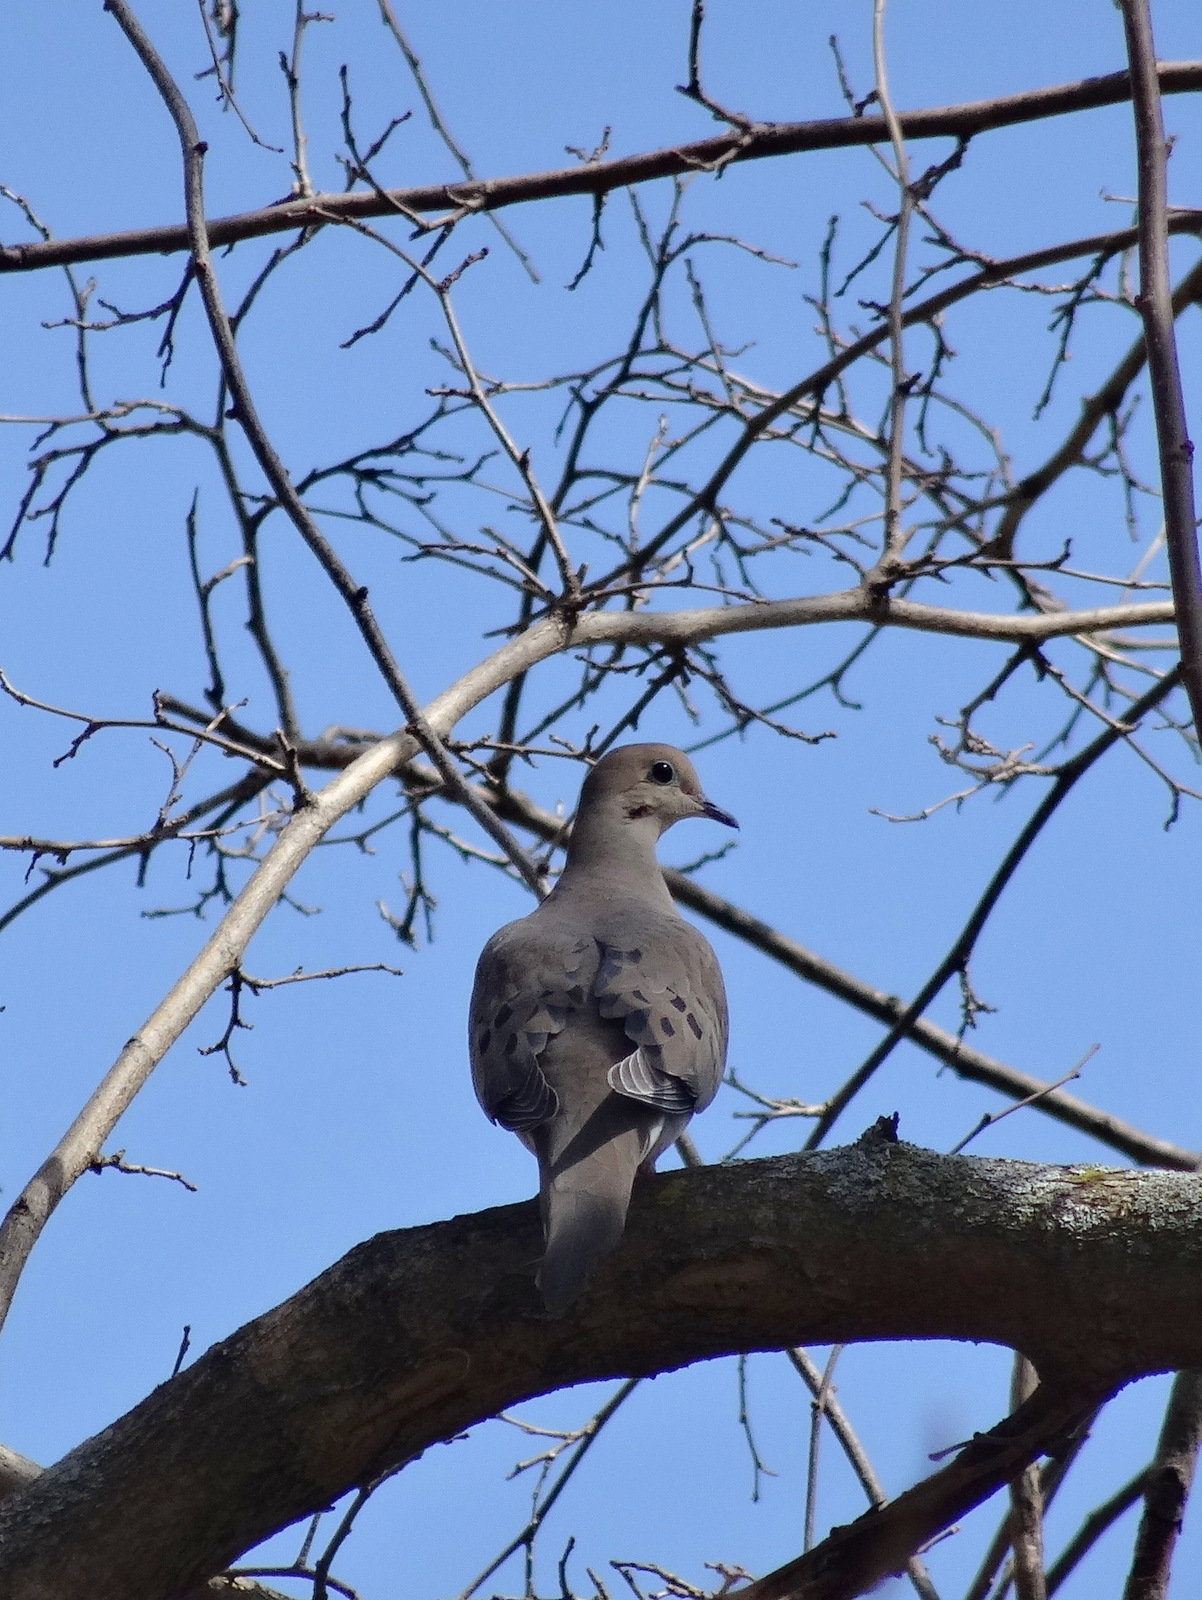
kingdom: Animalia
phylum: Chordata
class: Aves
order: Columbiformes
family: Columbidae
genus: Zenaida
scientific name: Zenaida macroura
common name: Mourning dove
